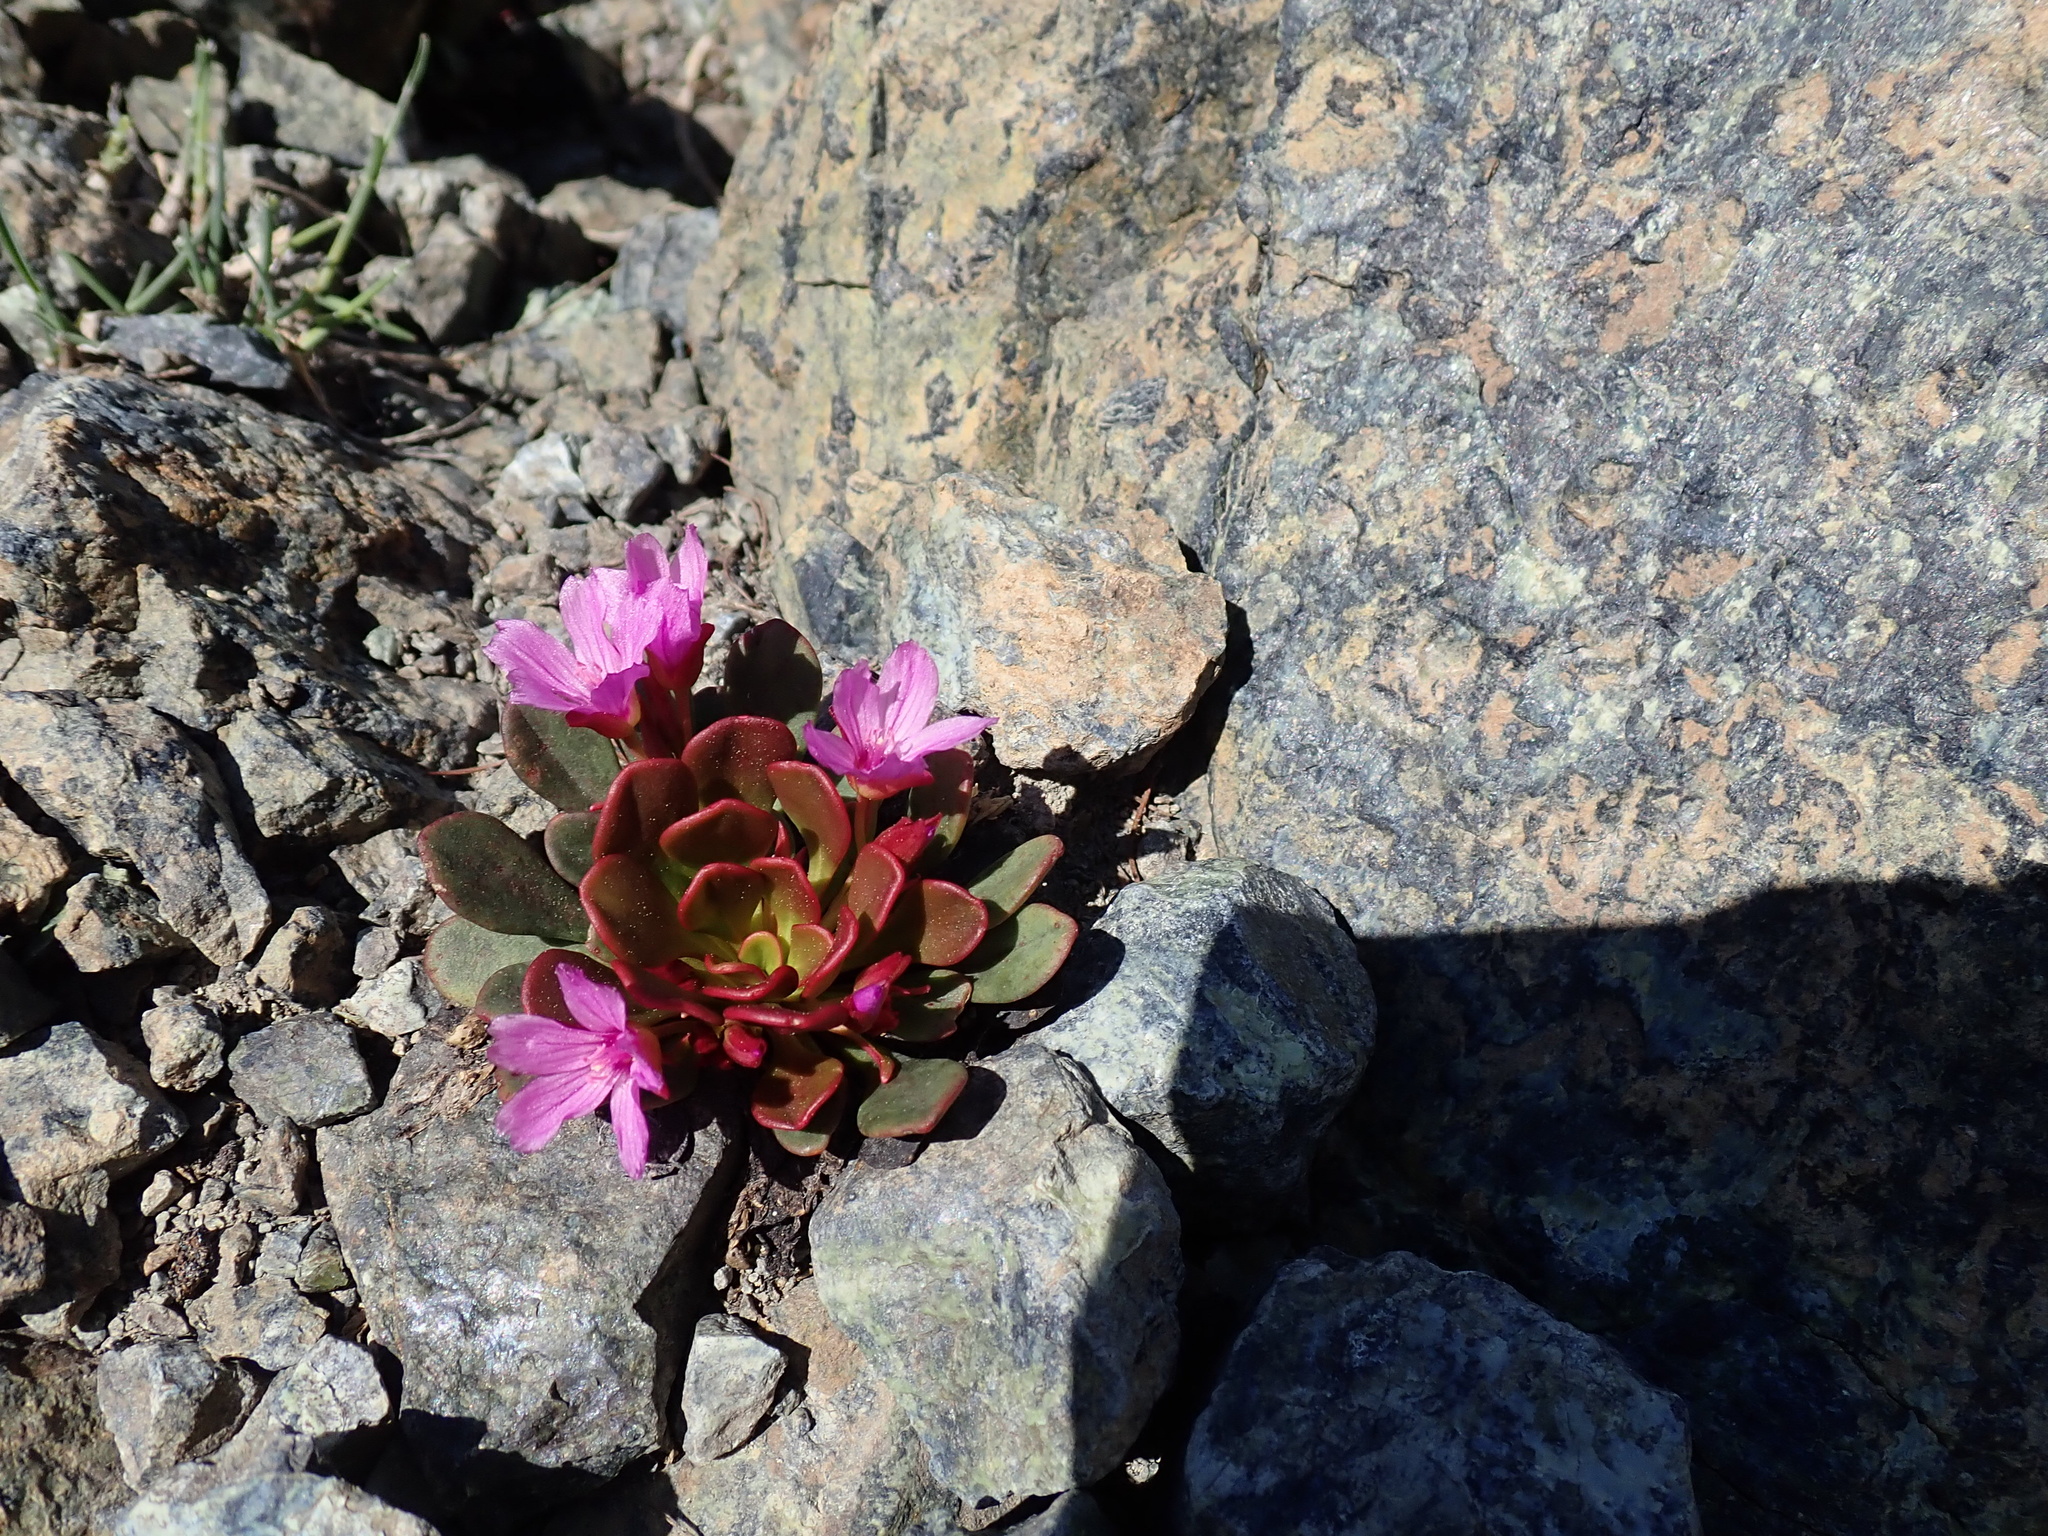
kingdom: Plantae
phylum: Tracheophyta
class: Magnoliopsida
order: Caryophyllales
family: Montiaceae
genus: Claytonia
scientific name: Claytonia megarhiza
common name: Alpine spring beauty
